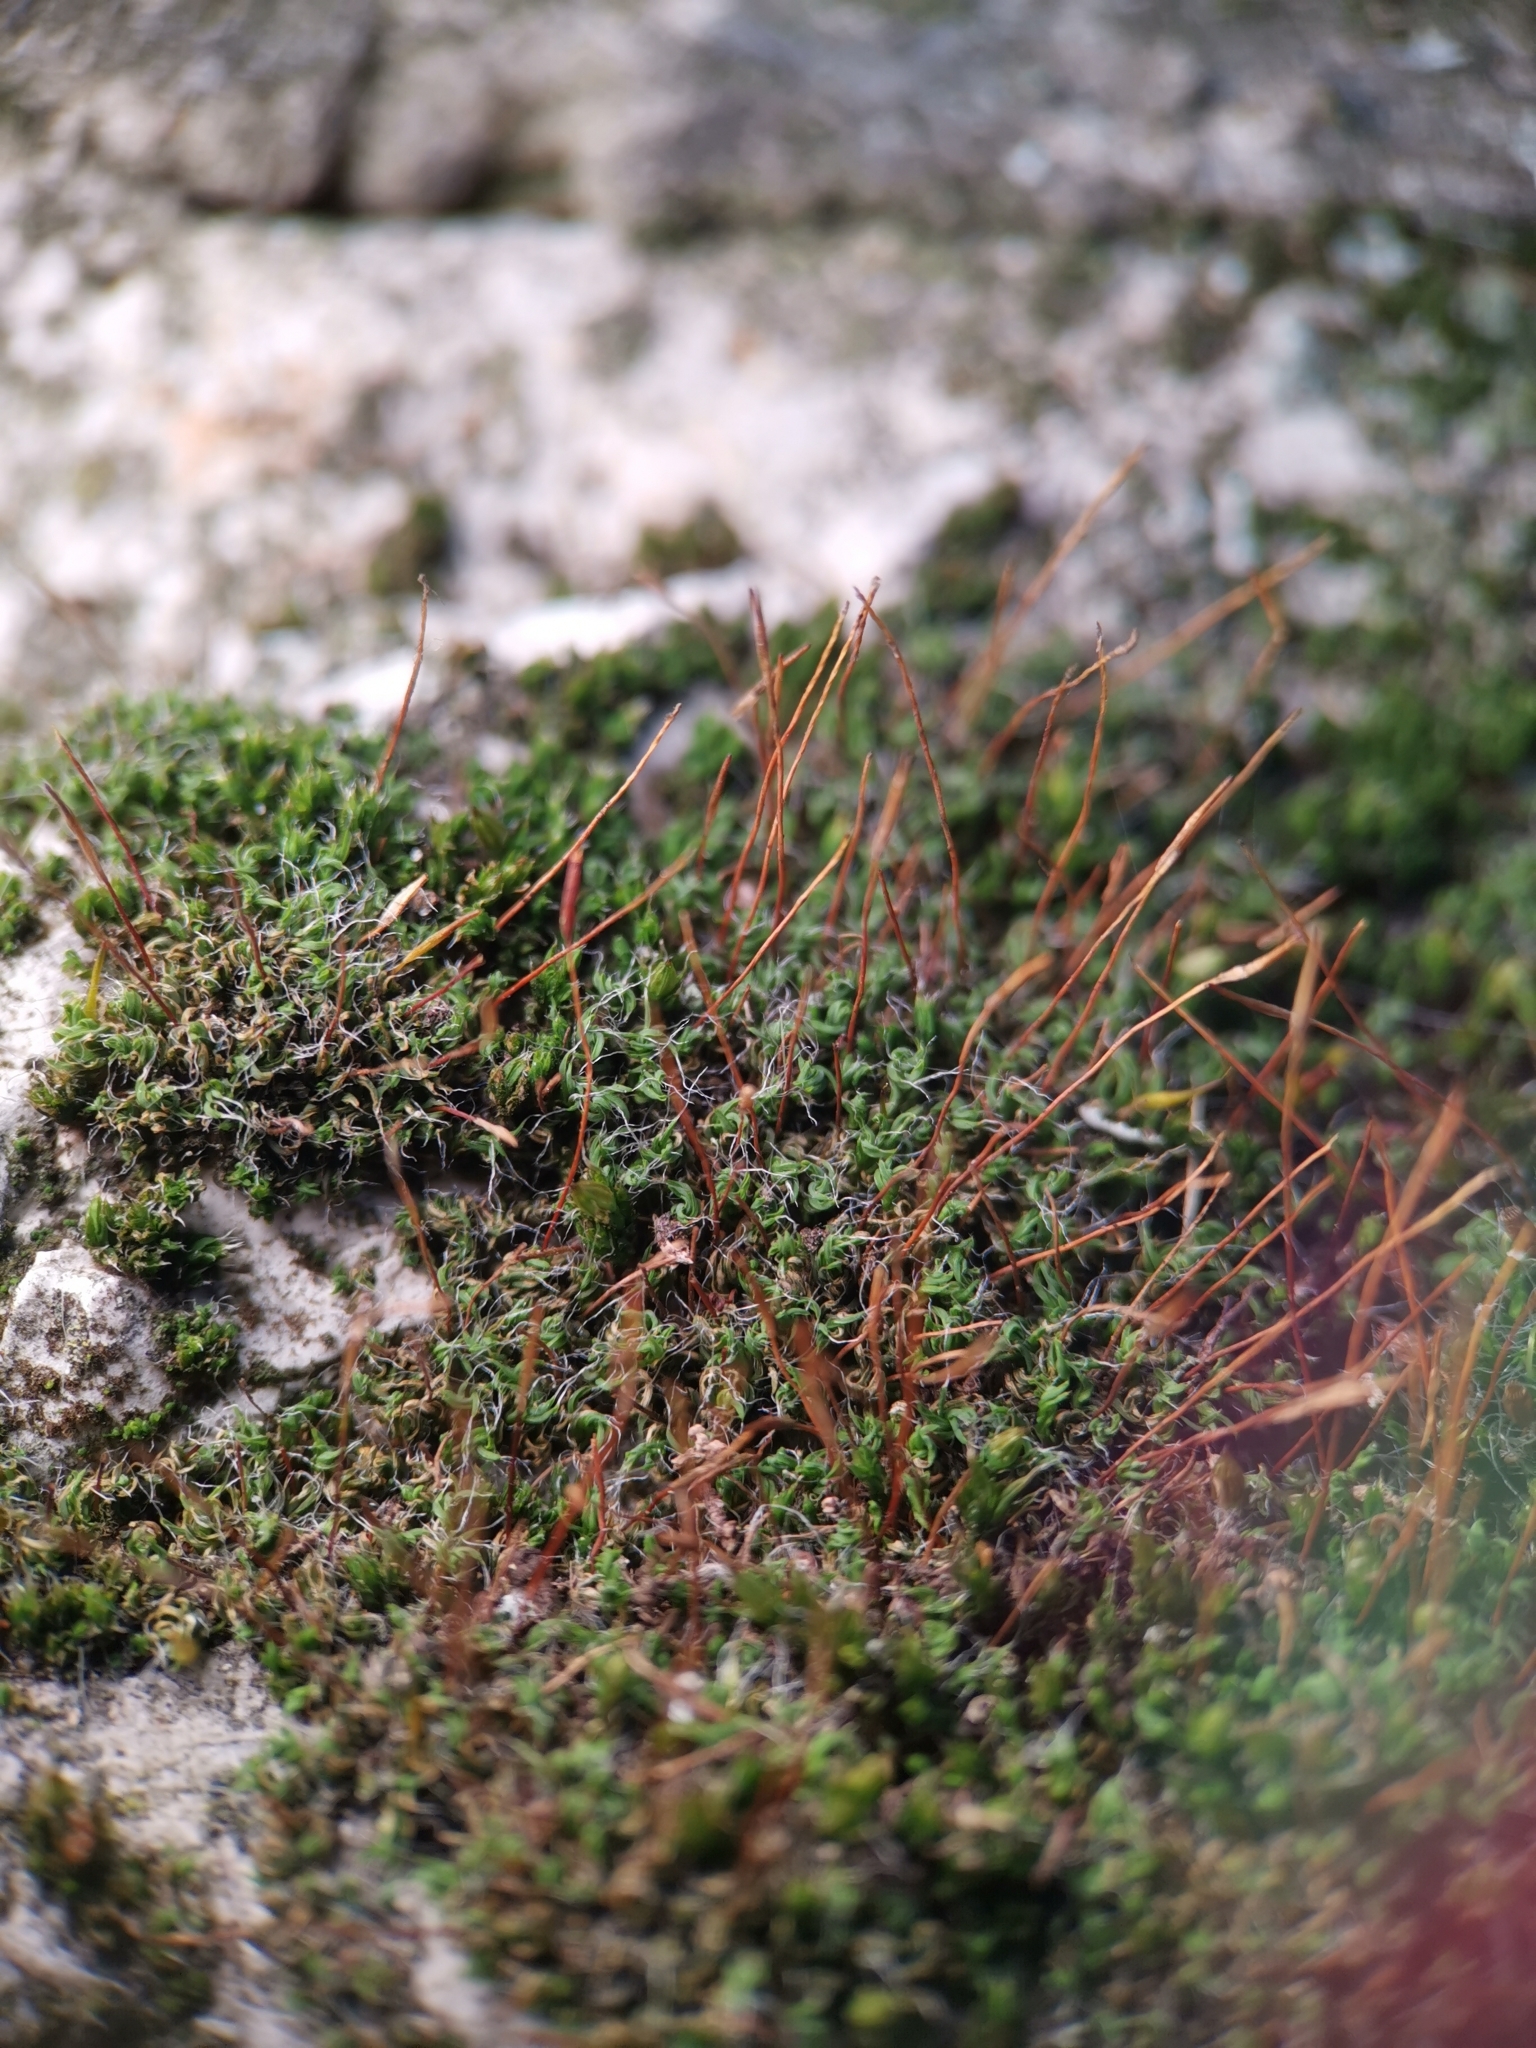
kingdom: Plantae
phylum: Bryophyta
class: Bryopsida
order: Pottiales
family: Pottiaceae
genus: Tortula
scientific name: Tortula muralis
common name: Wall screw-moss
